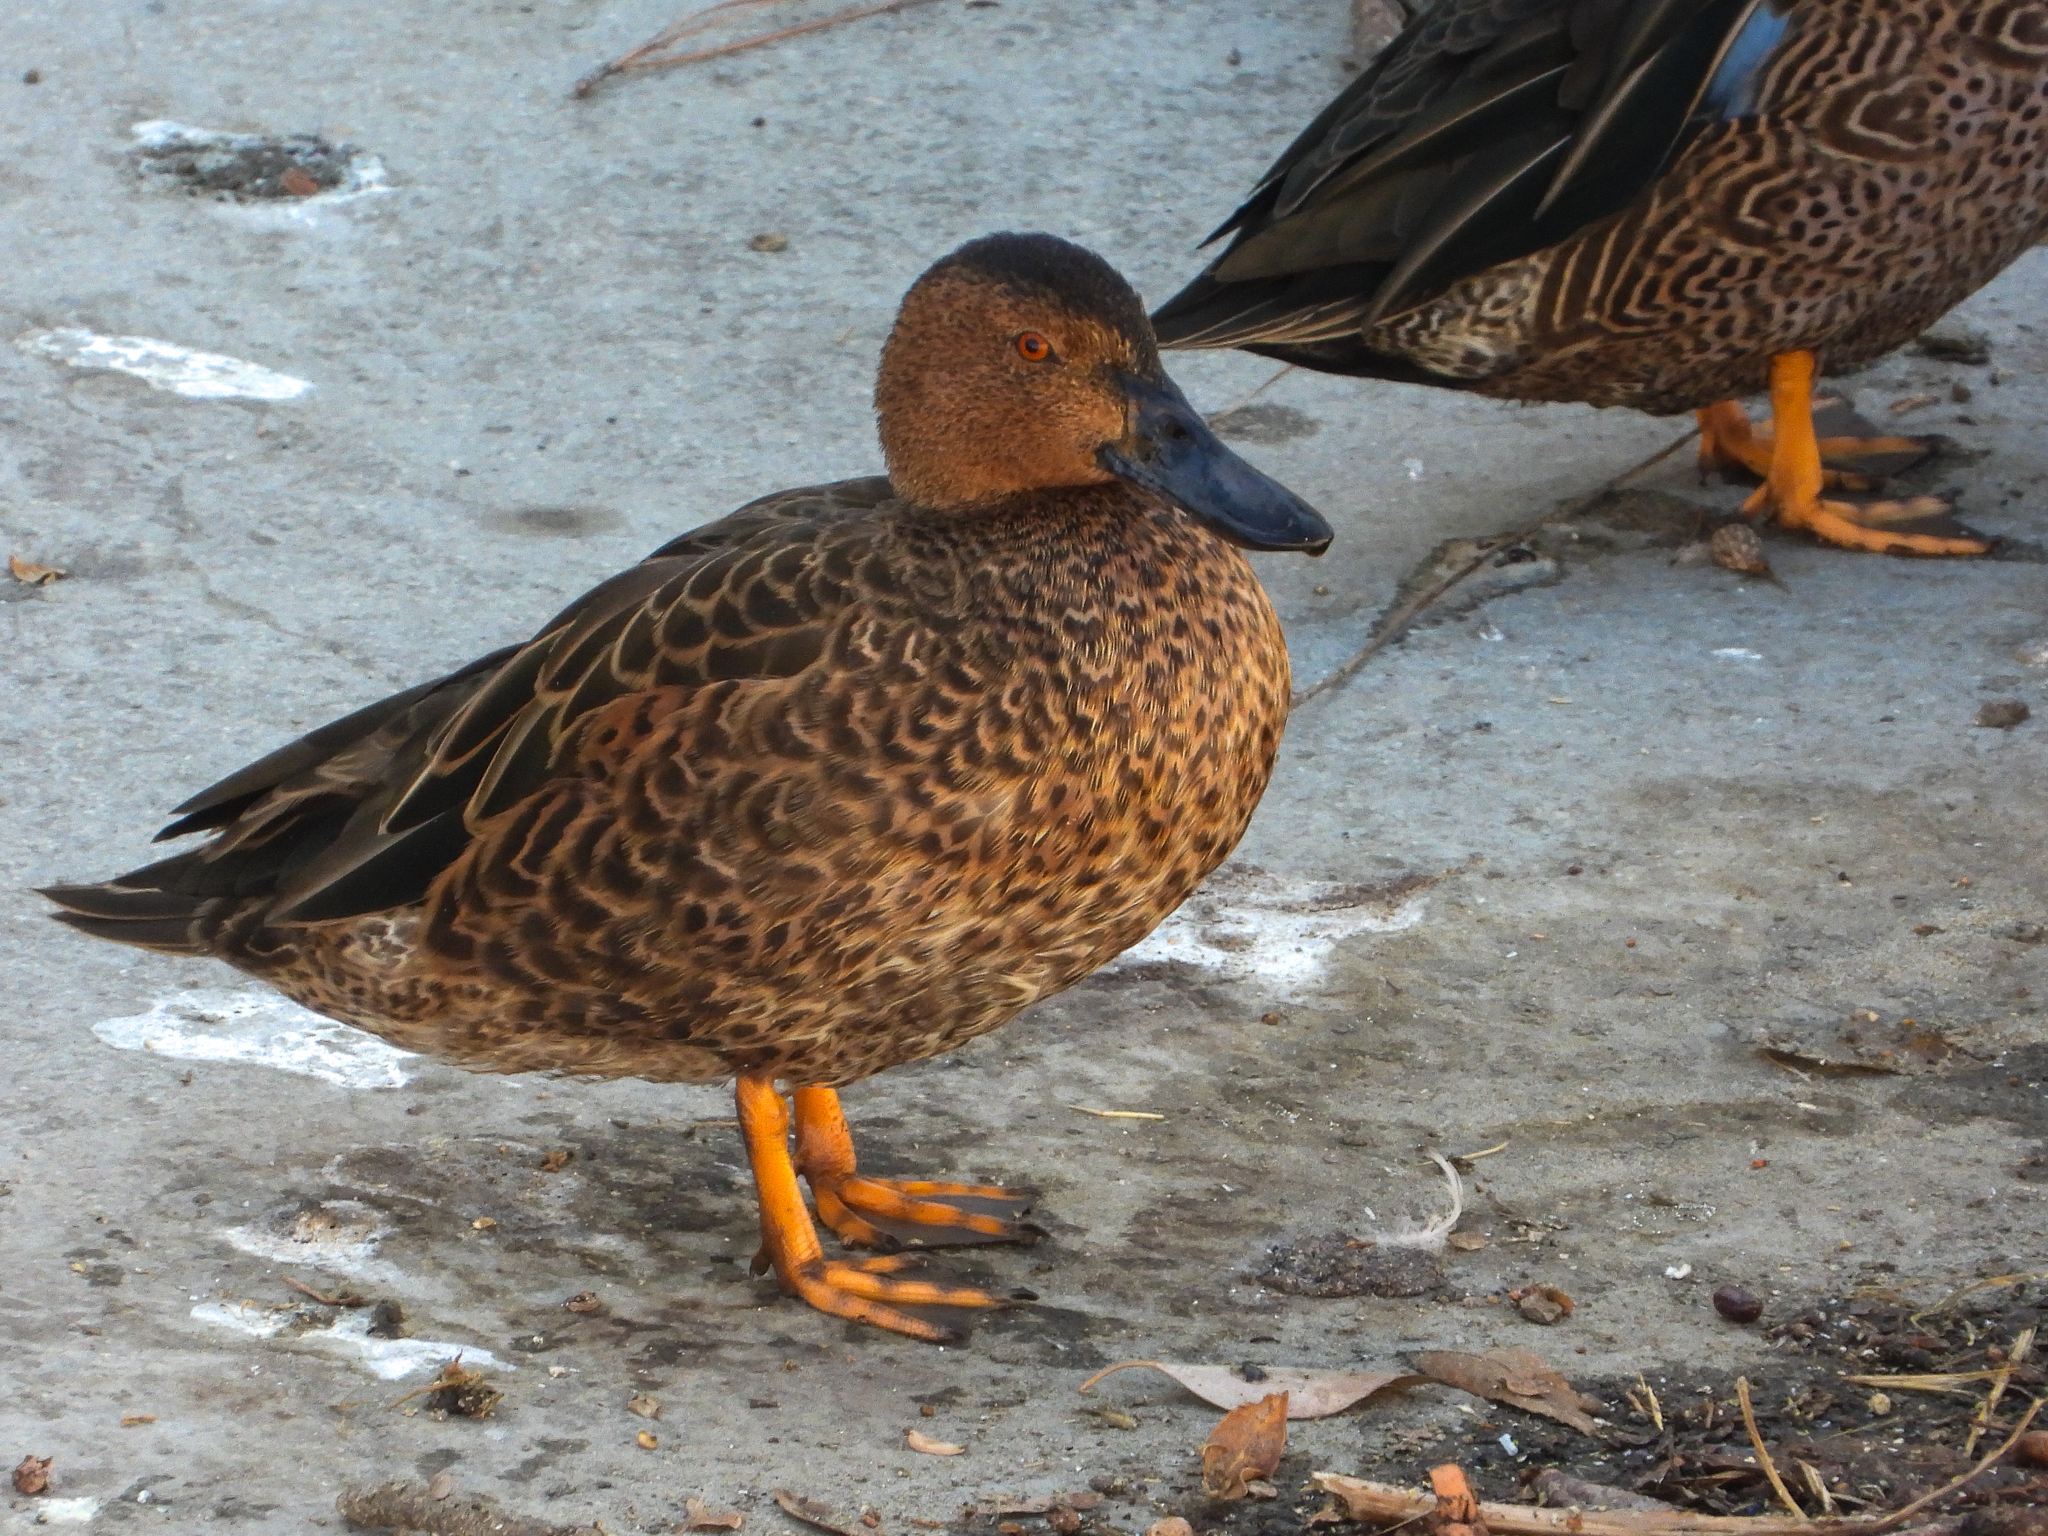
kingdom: Animalia
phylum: Chordata
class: Aves
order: Anseriformes
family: Anatidae
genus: Spatula
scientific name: Spatula cyanoptera
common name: Cinnamon teal
